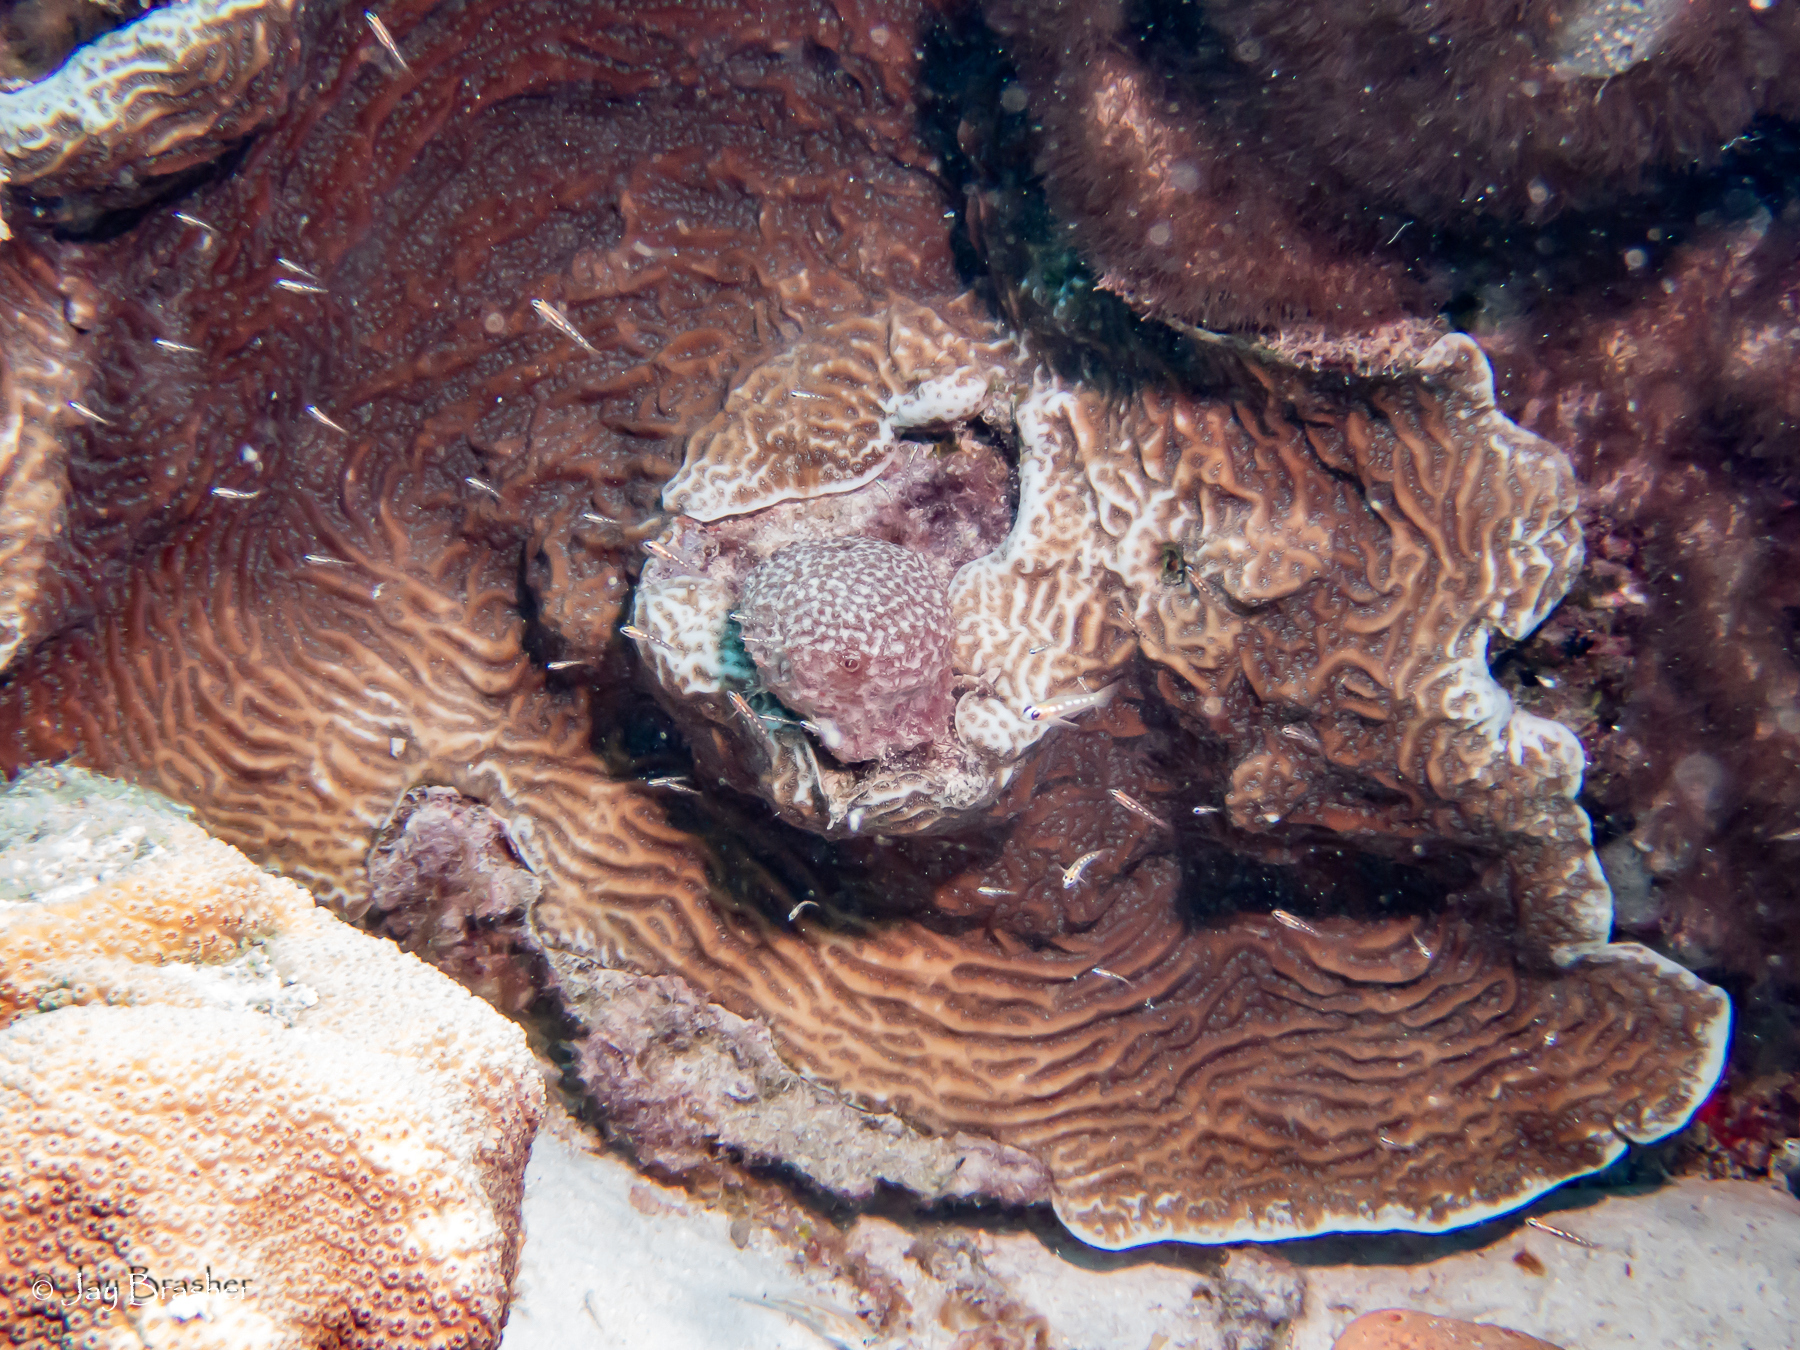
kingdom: Animalia
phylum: Cnidaria
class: Anthozoa
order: Scleractinia
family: Agariciidae
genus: Agaricia
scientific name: Agaricia lamarcki
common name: Lamarck's sheet coral
